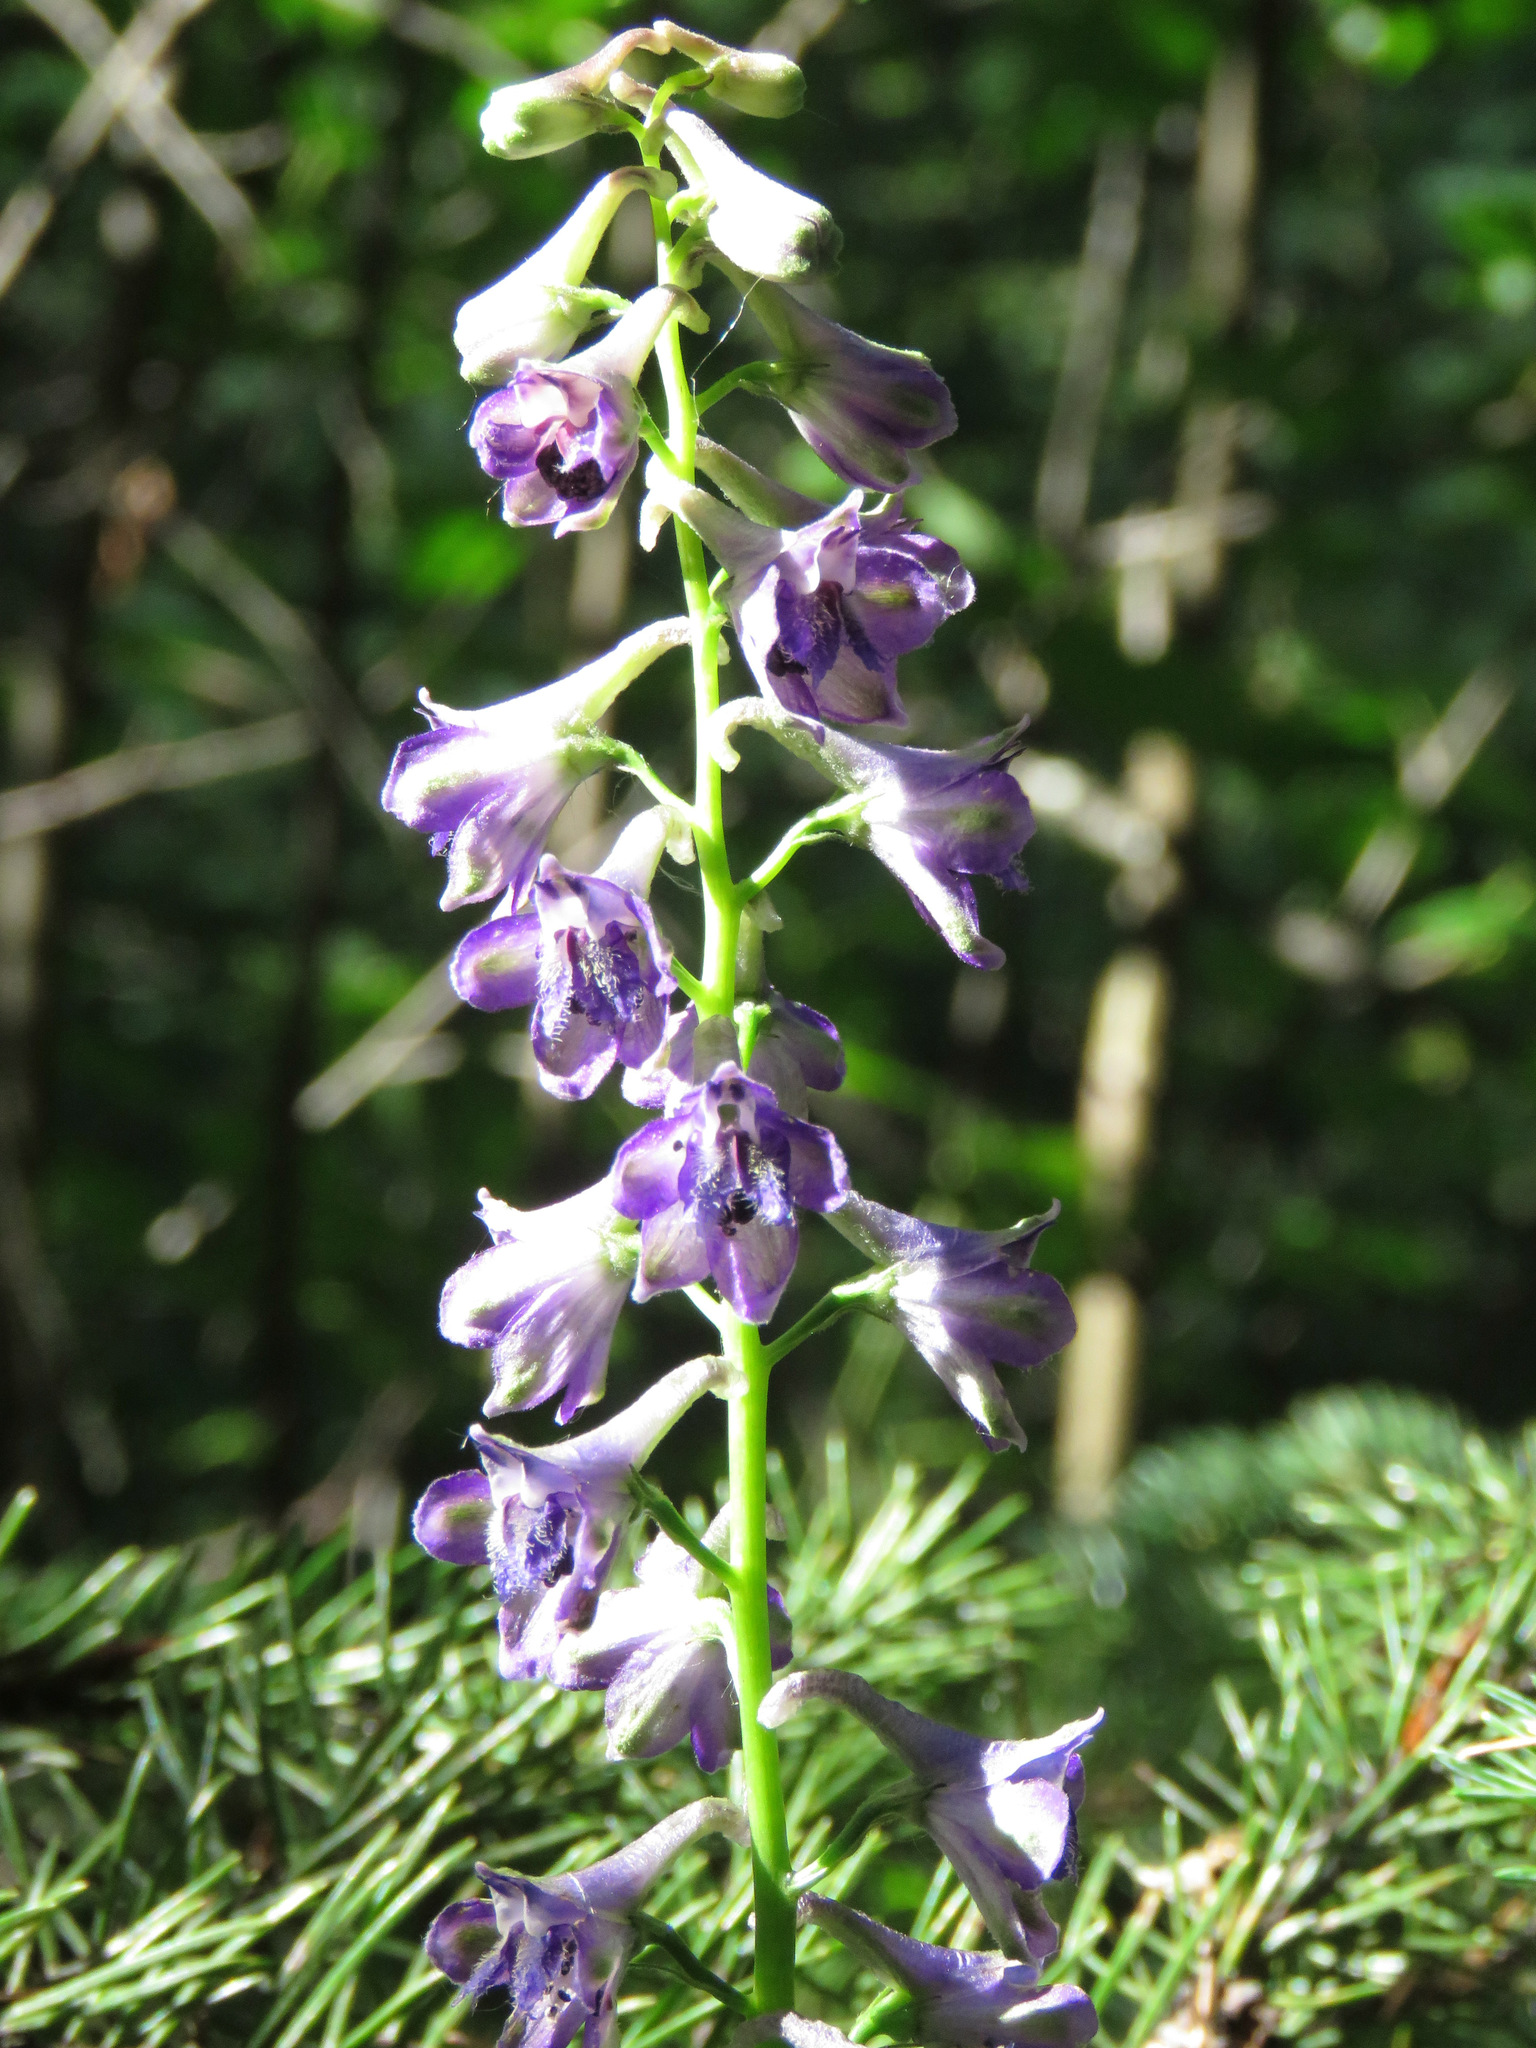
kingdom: Plantae
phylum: Tracheophyta
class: Magnoliopsida
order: Ranunculales
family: Ranunculaceae
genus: Delphinium
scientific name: Delphinium glaucum
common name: Brown's larkspur
